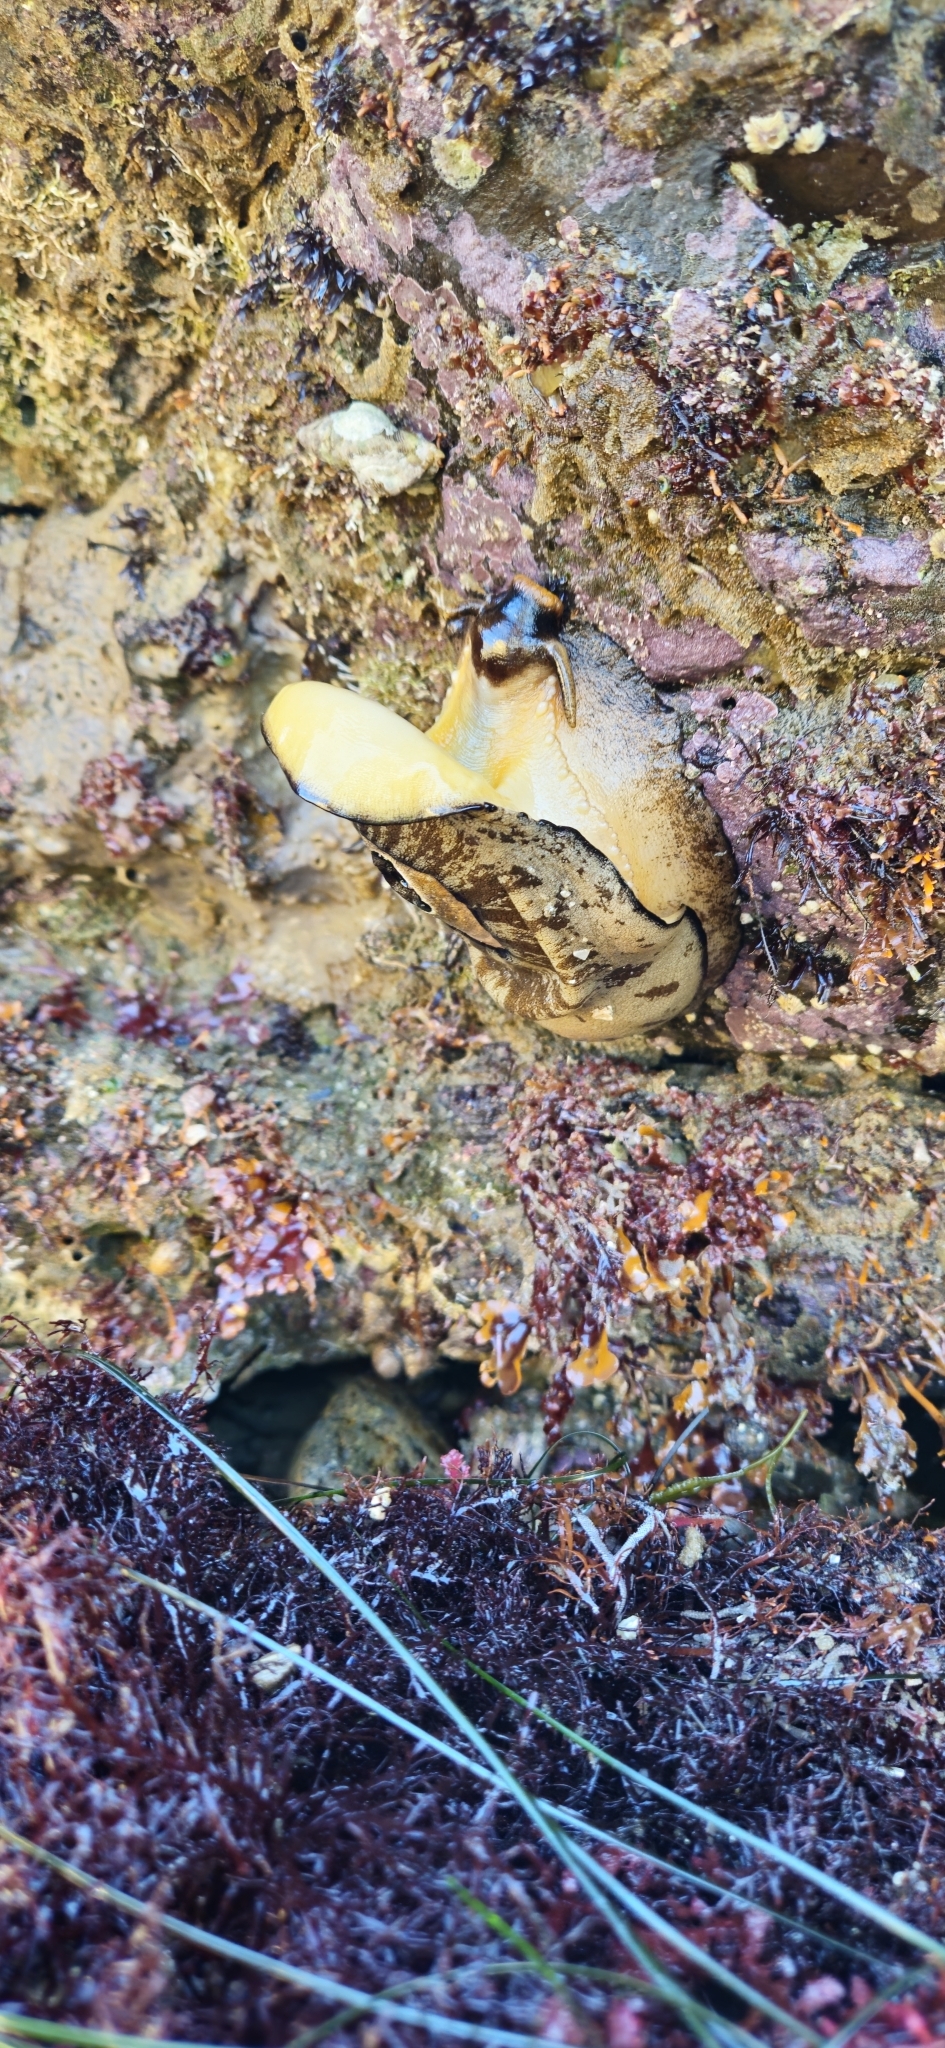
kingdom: Animalia
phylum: Mollusca
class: Gastropoda
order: Lepetellida
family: Fissurellidae
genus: Megathura
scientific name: Megathura crenulata
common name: Giant keyhole limpet
